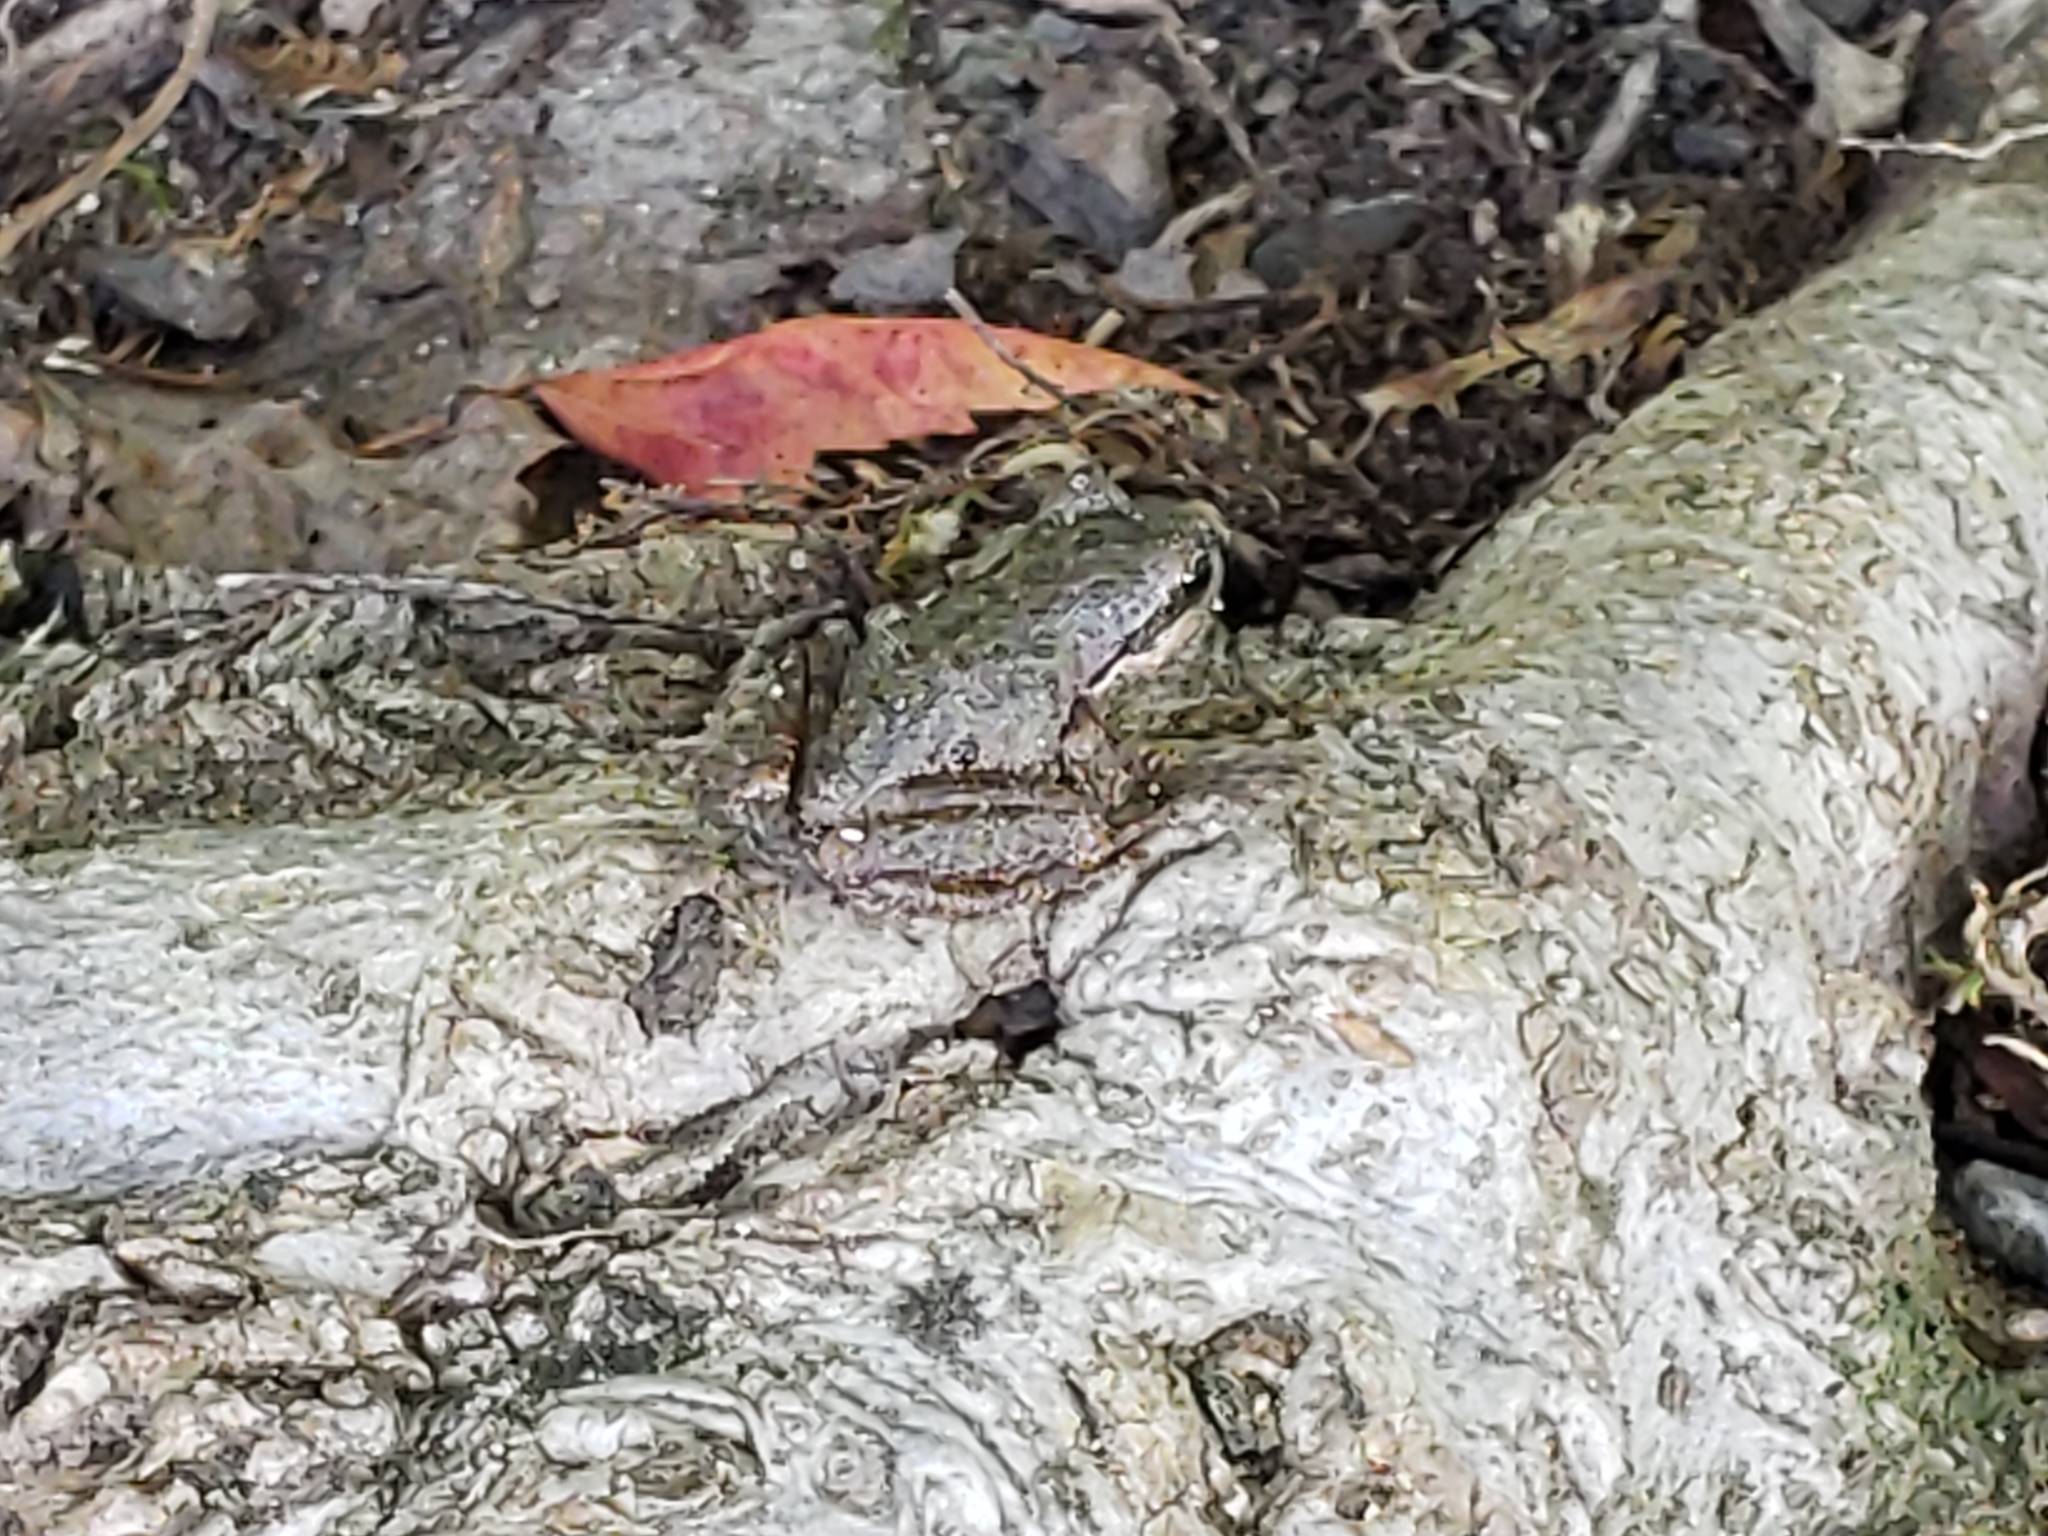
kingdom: Animalia
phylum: Chordata
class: Amphibia
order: Anura
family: Hylidae
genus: Pseudacris
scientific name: Pseudacris regilla
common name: Pacific chorus frog
